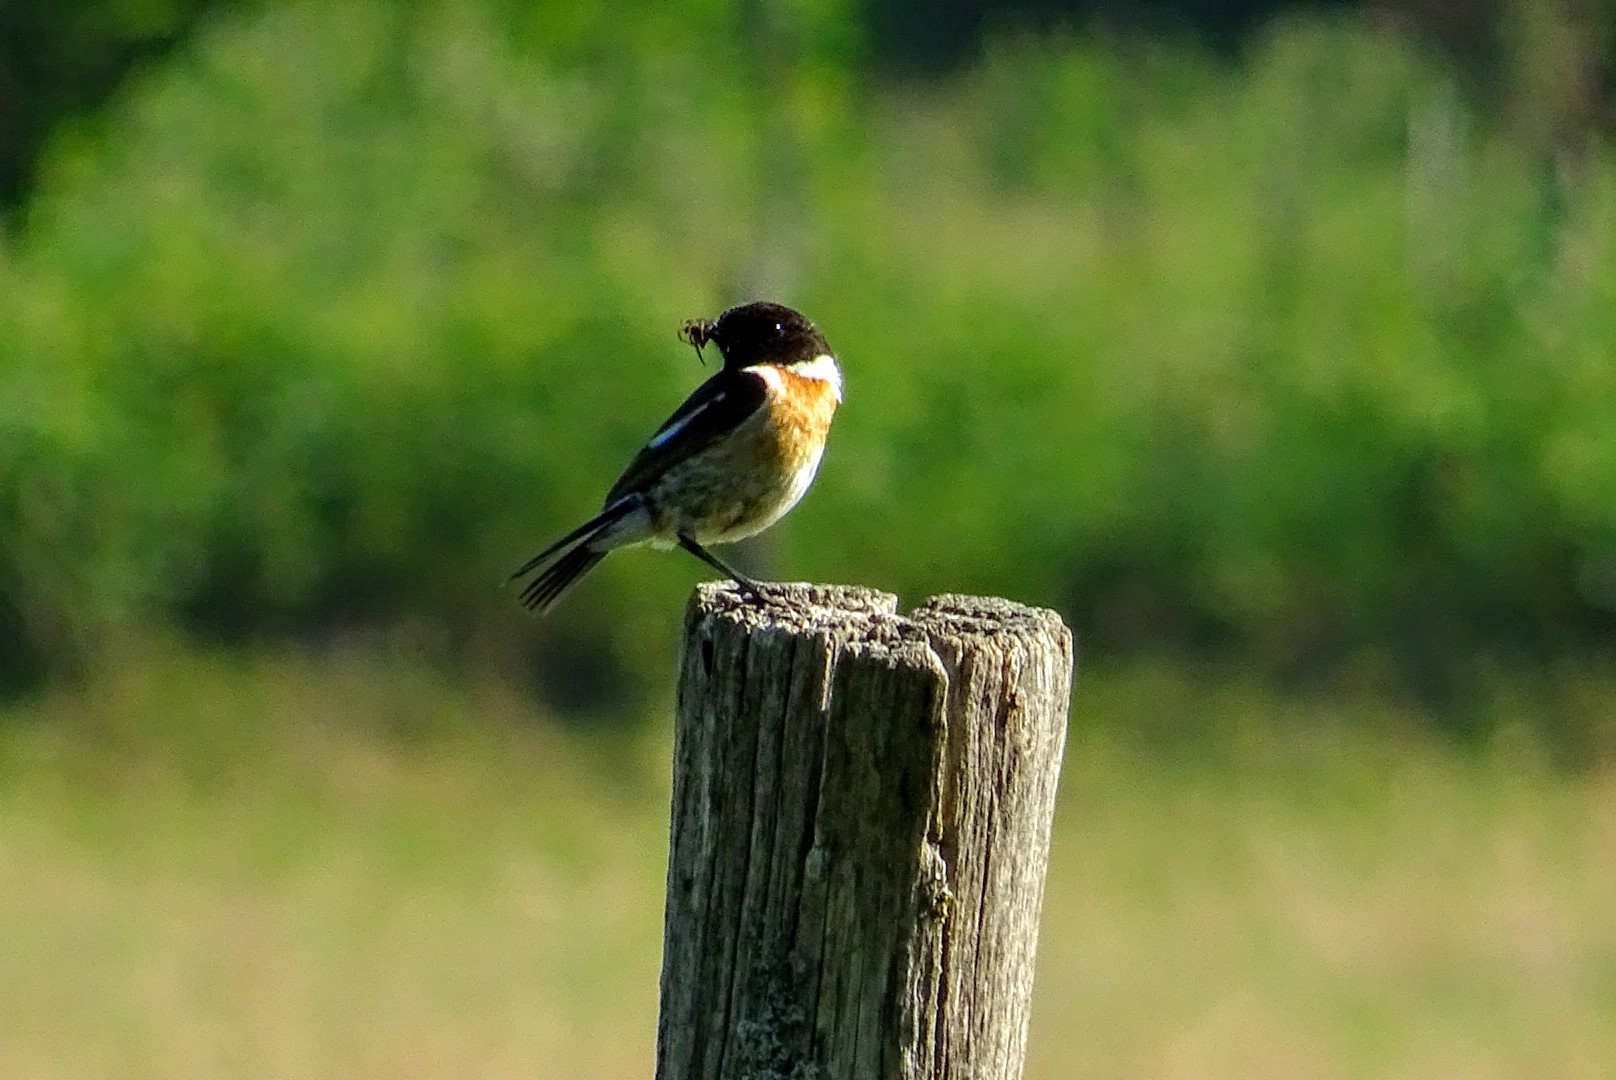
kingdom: Animalia
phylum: Chordata
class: Aves
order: Passeriformes
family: Muscicapidae
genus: Saxicola
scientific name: Saxicola rubicola
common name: European stonechat
